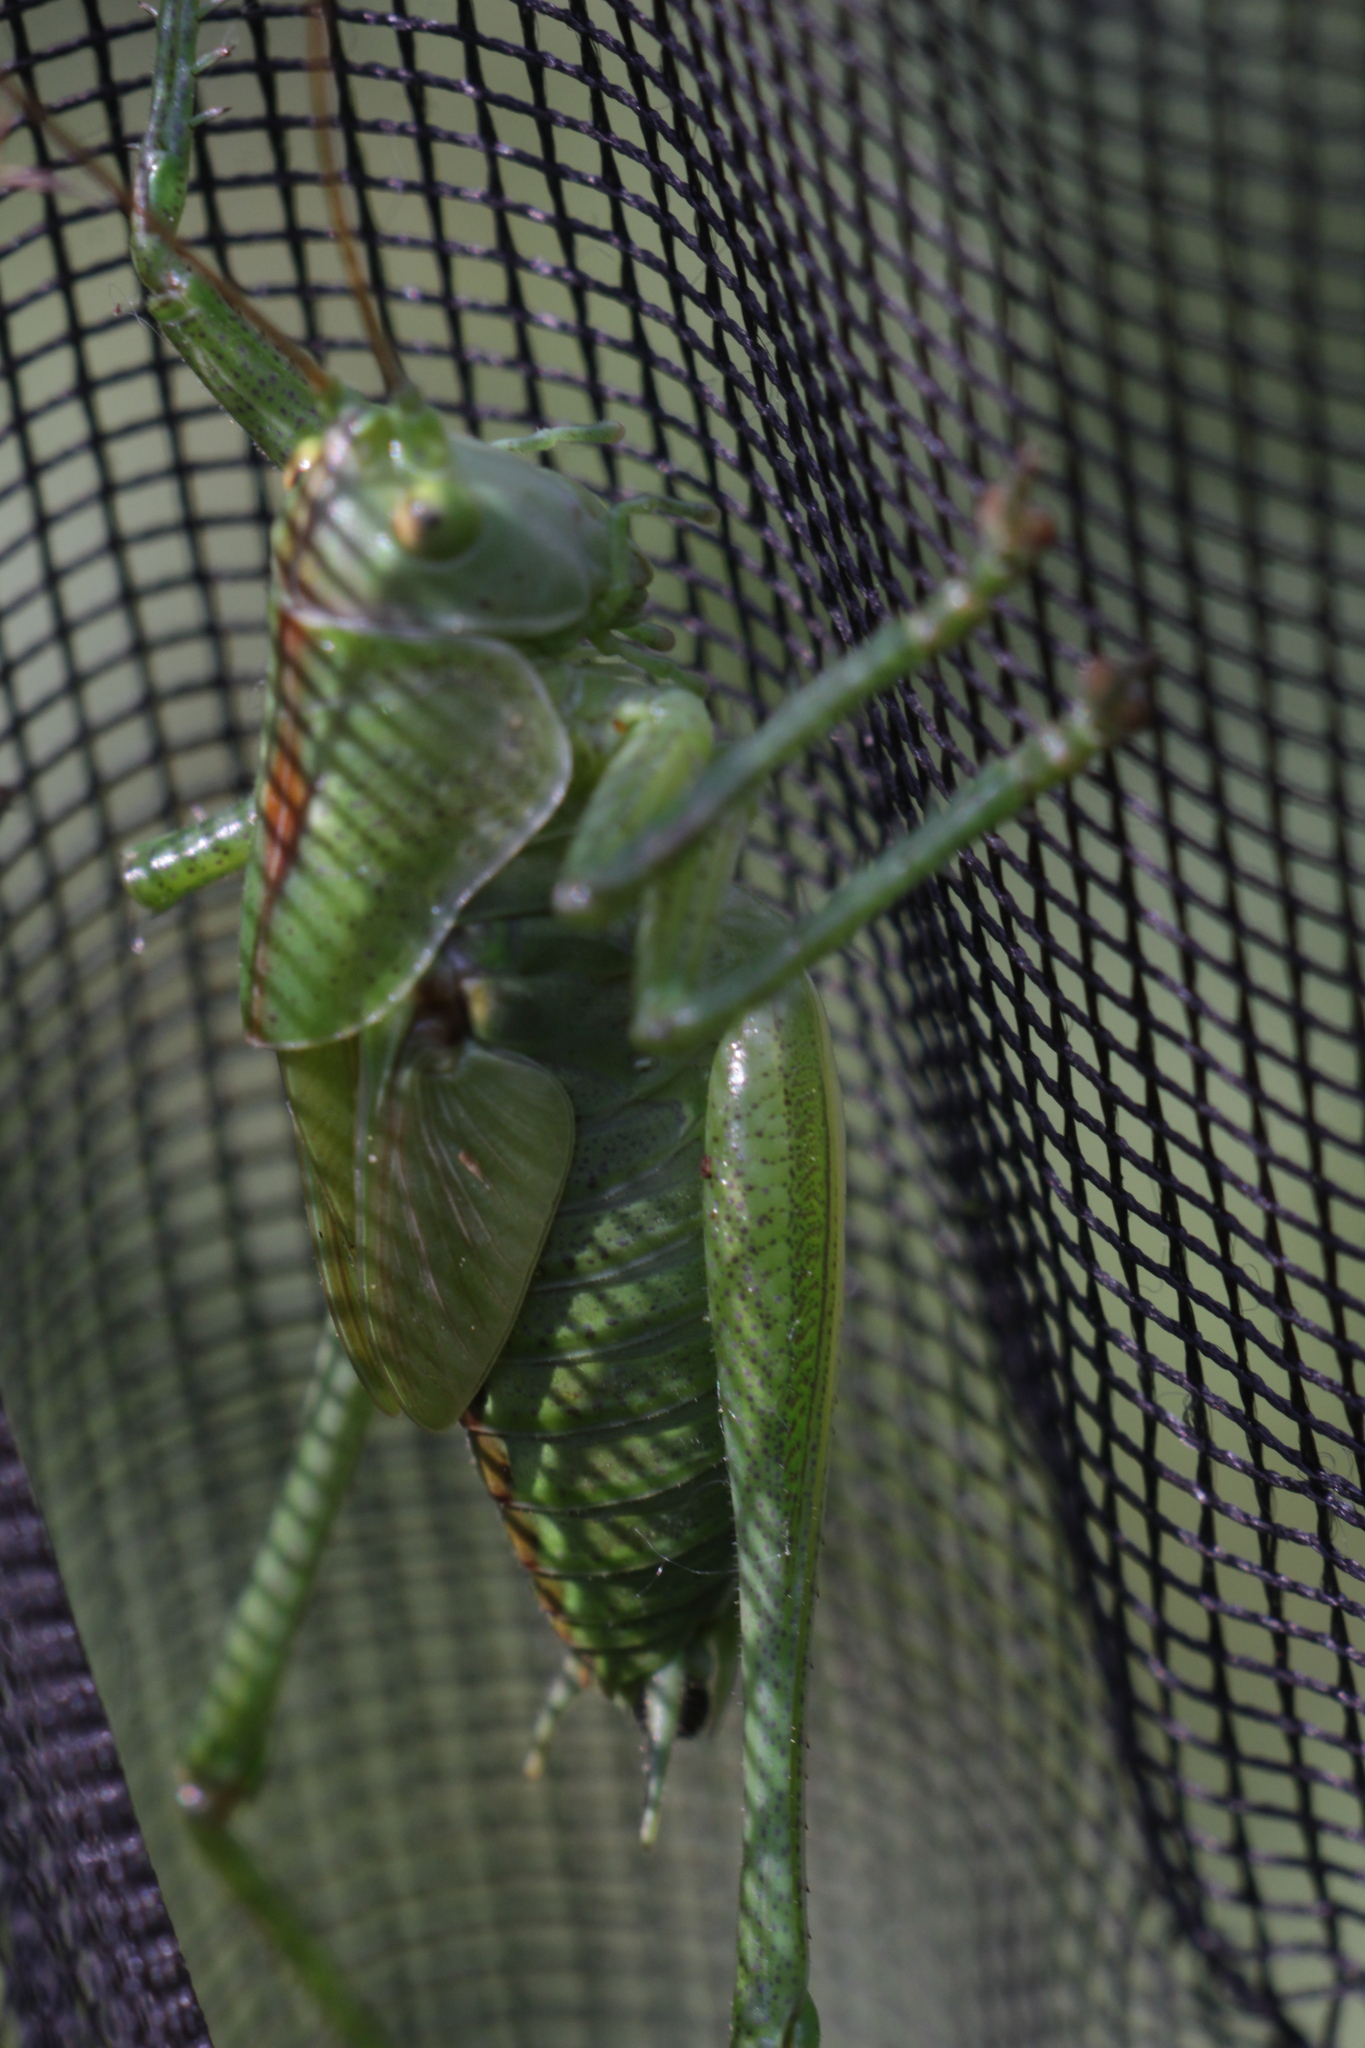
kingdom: Animalia
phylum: Arthropoda
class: Insecta
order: Orthoptera
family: Tettigoniidae
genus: Tettigonia
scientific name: Tettigonia viridissima
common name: Great green bush-cricket
